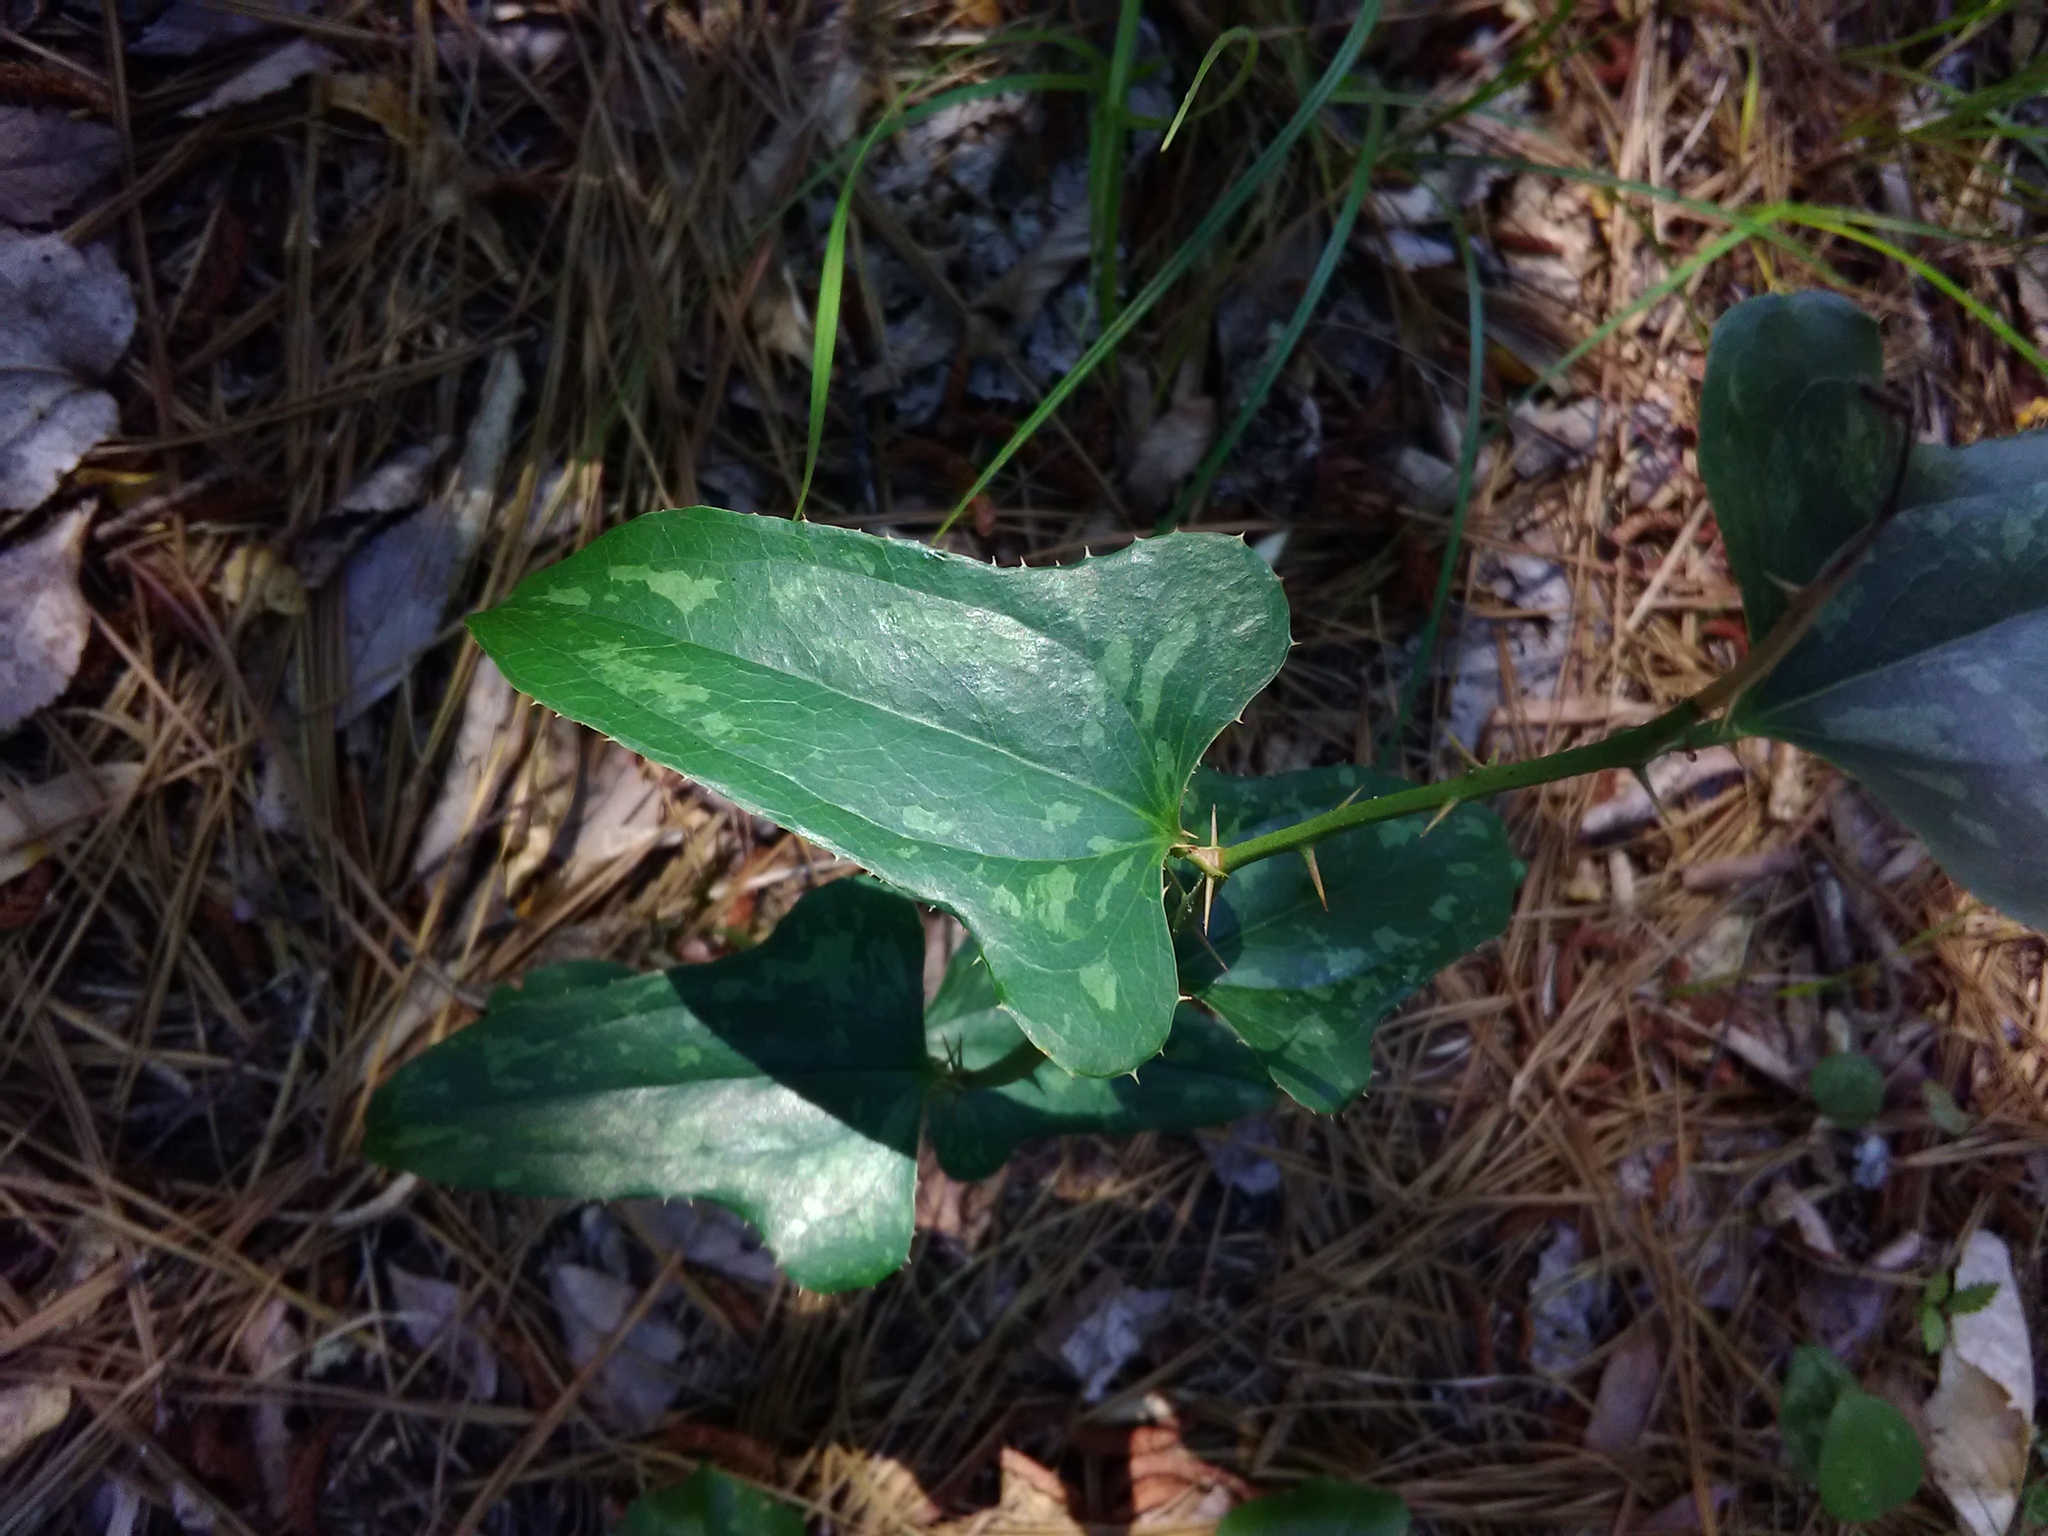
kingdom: Plantae
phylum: Tracheophyta
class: Liliopsida
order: Liliales
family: Smilacaceae
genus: Smilax
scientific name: Smilax bona-nox
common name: Catbrier
